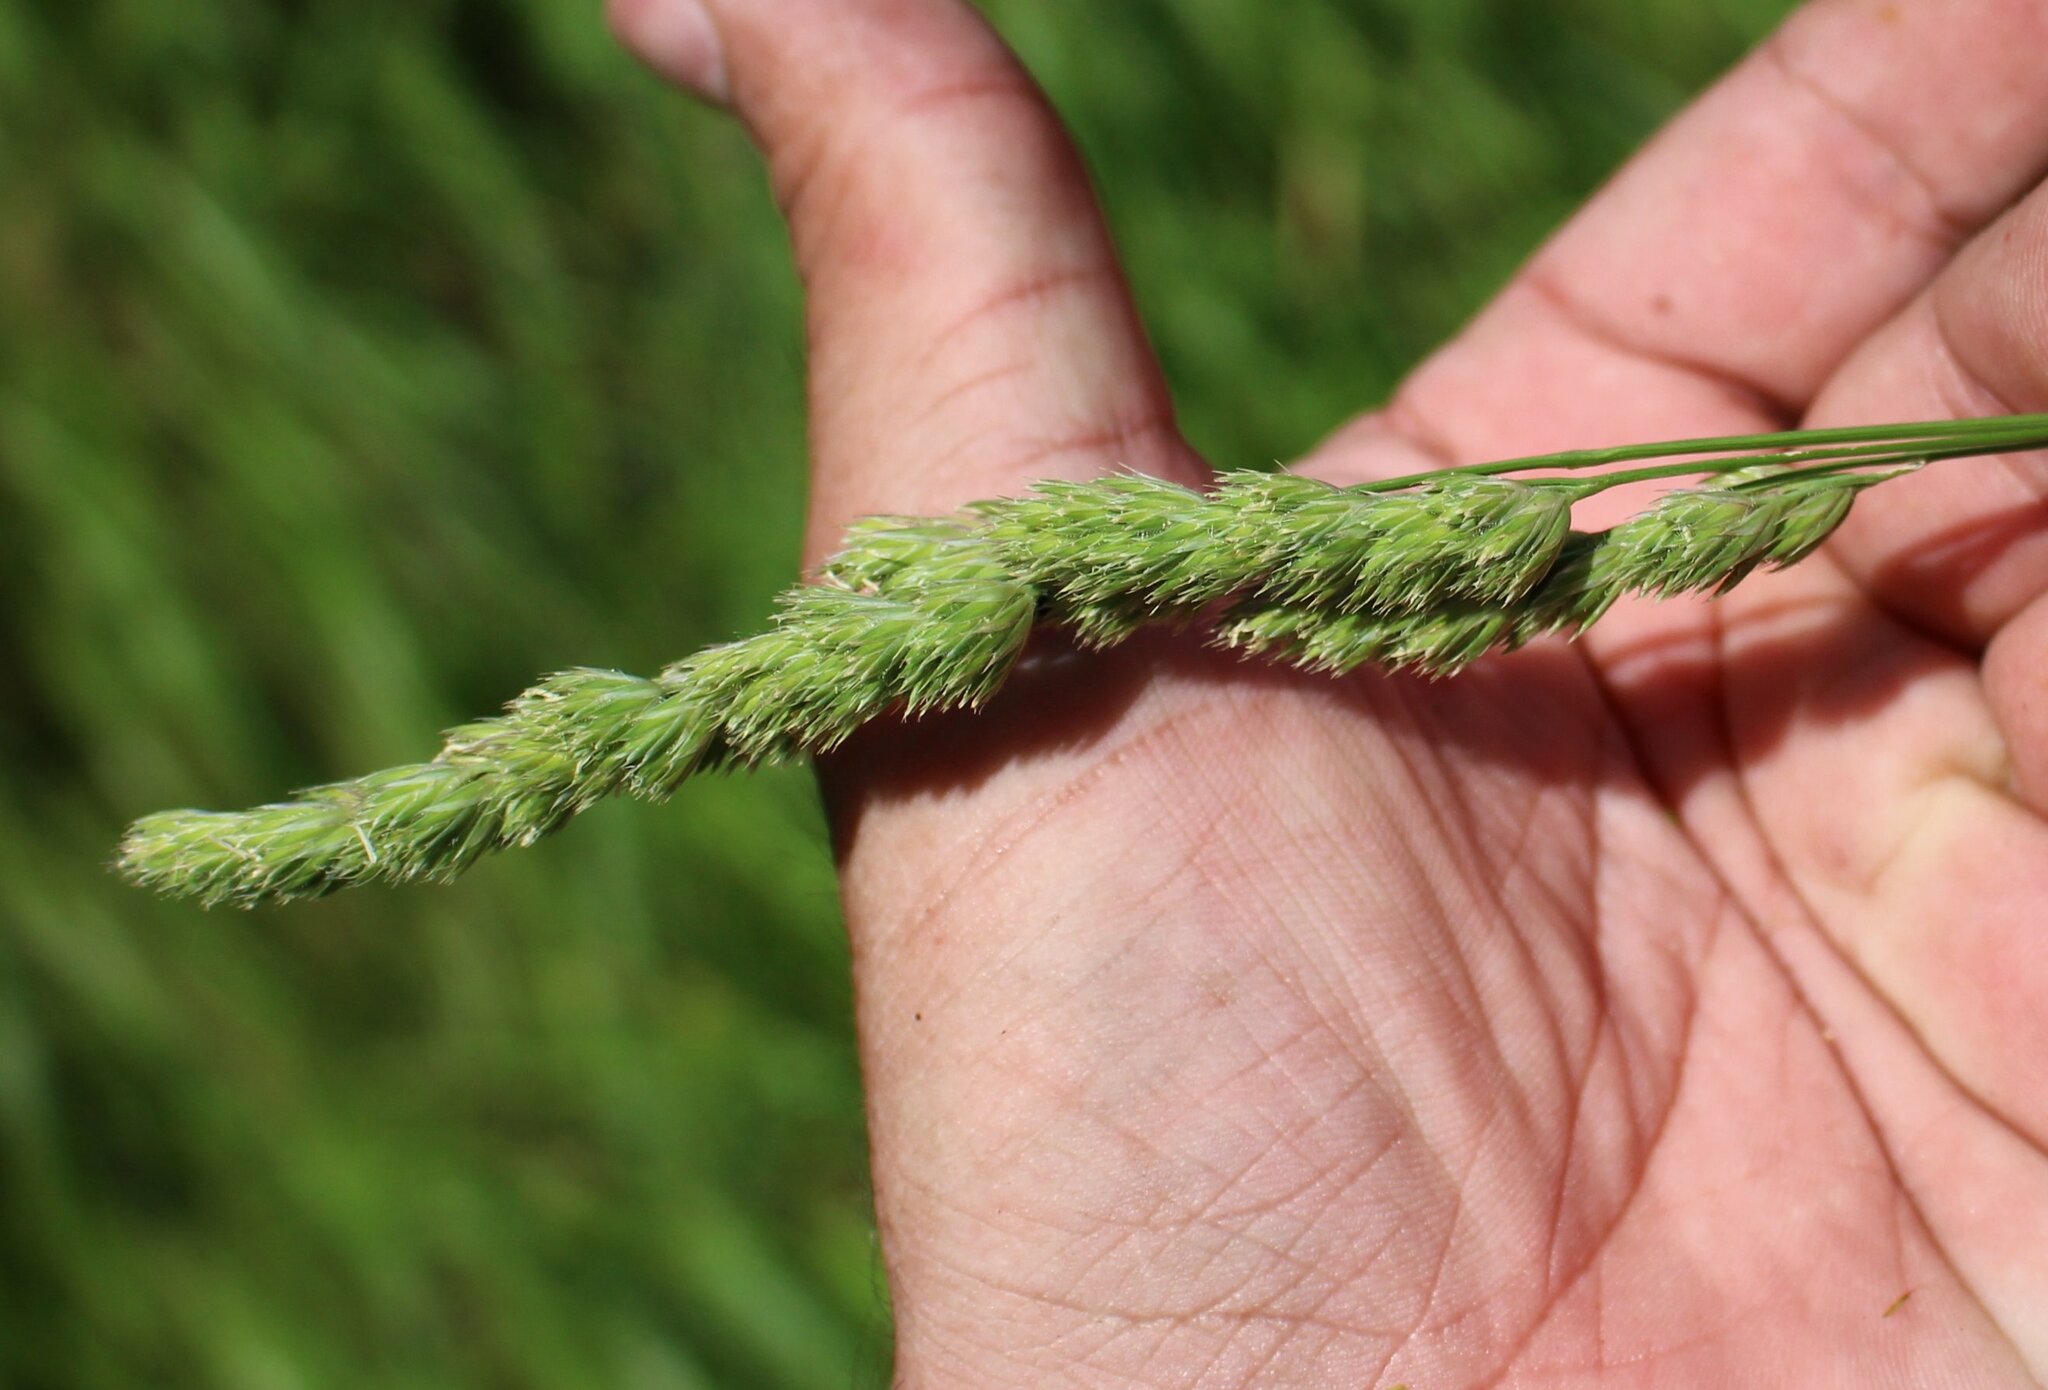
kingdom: Plantae
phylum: Tracheophyta
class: Liliopsida
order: Poales
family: Poaceae
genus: Dactylis
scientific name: Dactylis glomerata
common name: Orchardgrass
